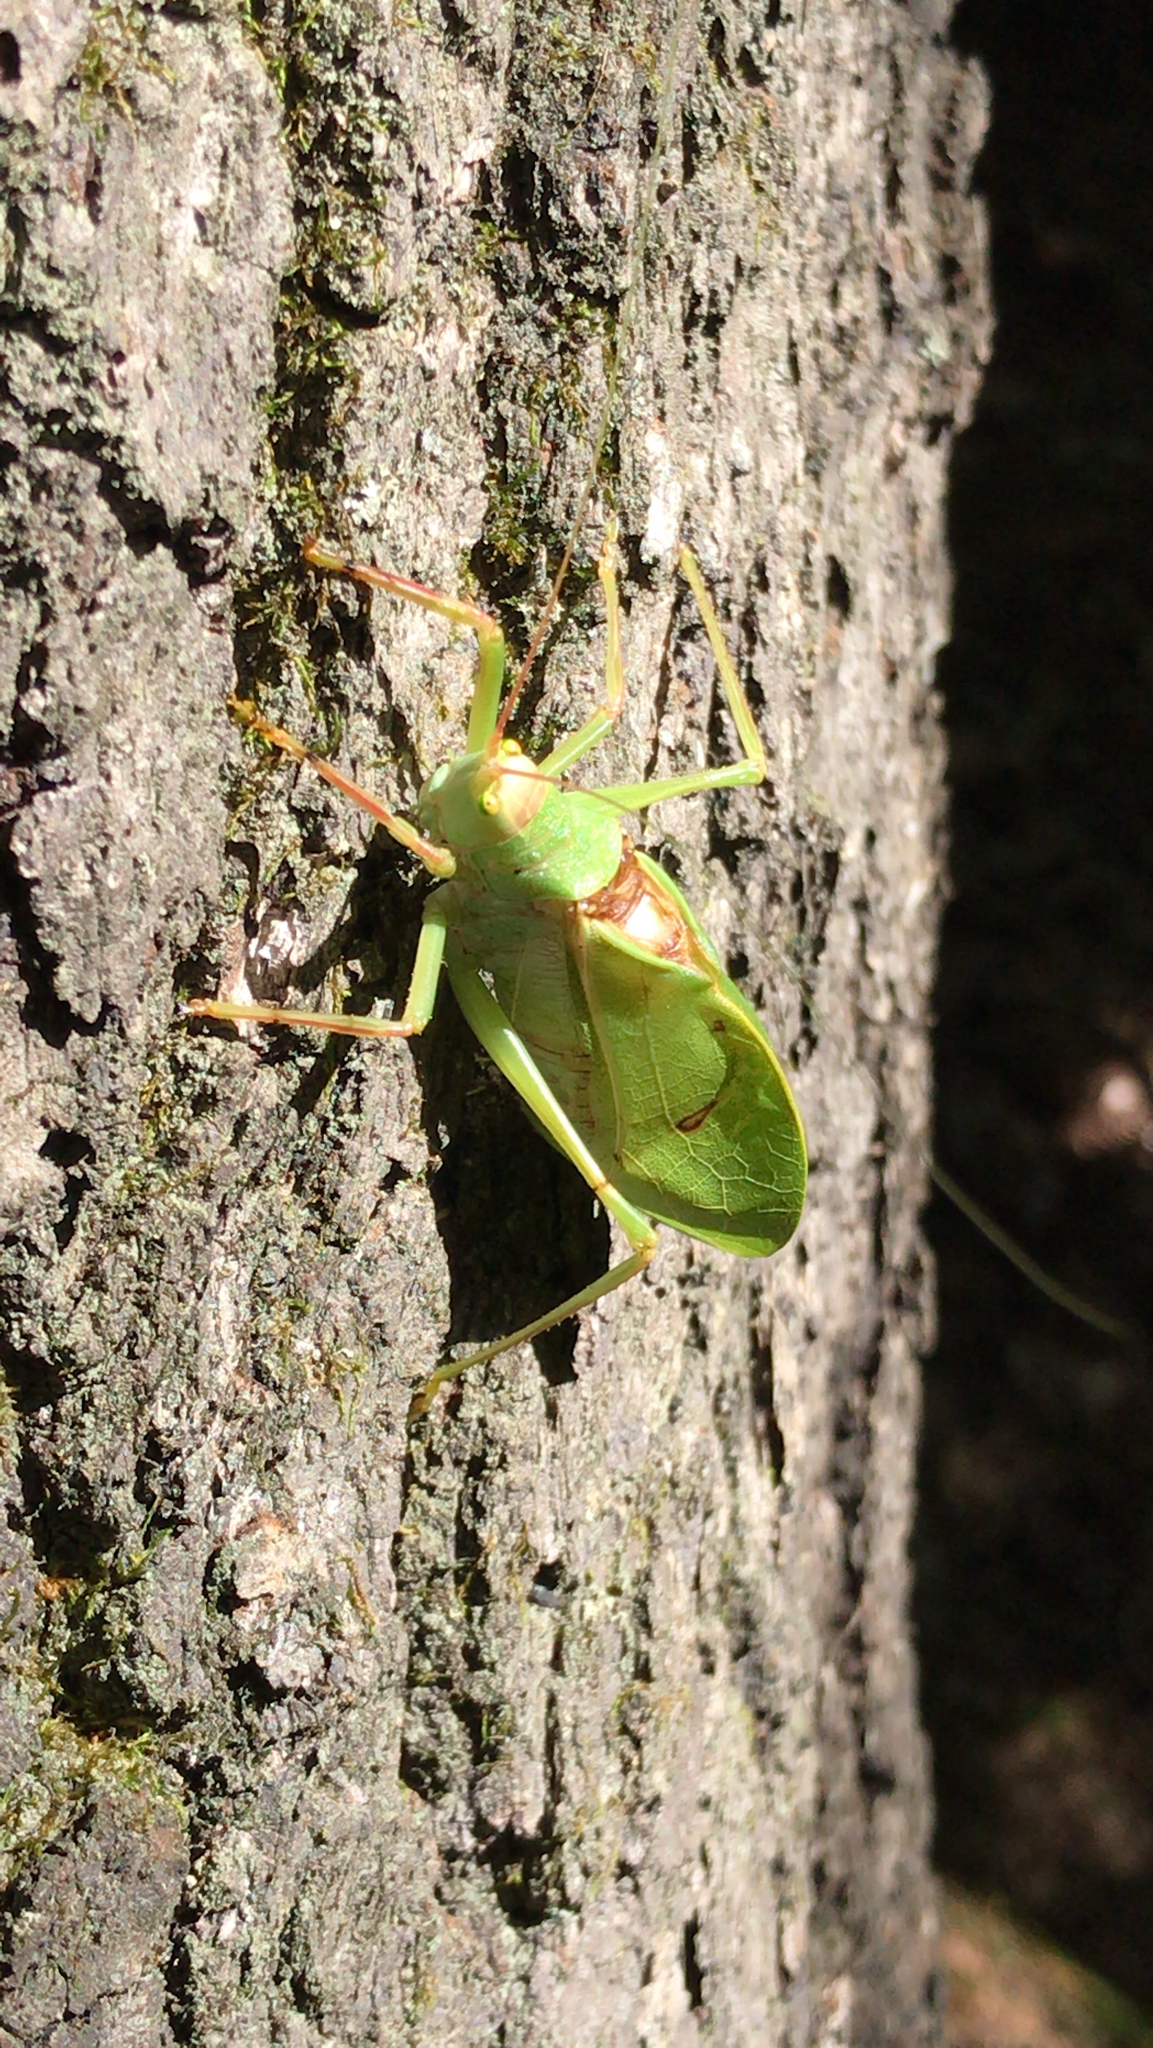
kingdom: Animalia
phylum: Arthropoda
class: Insecta
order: Orthoptera
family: Tettigoniidae
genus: Pterophylla
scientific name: Pterophylla camellifolia
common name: Common true katydid
